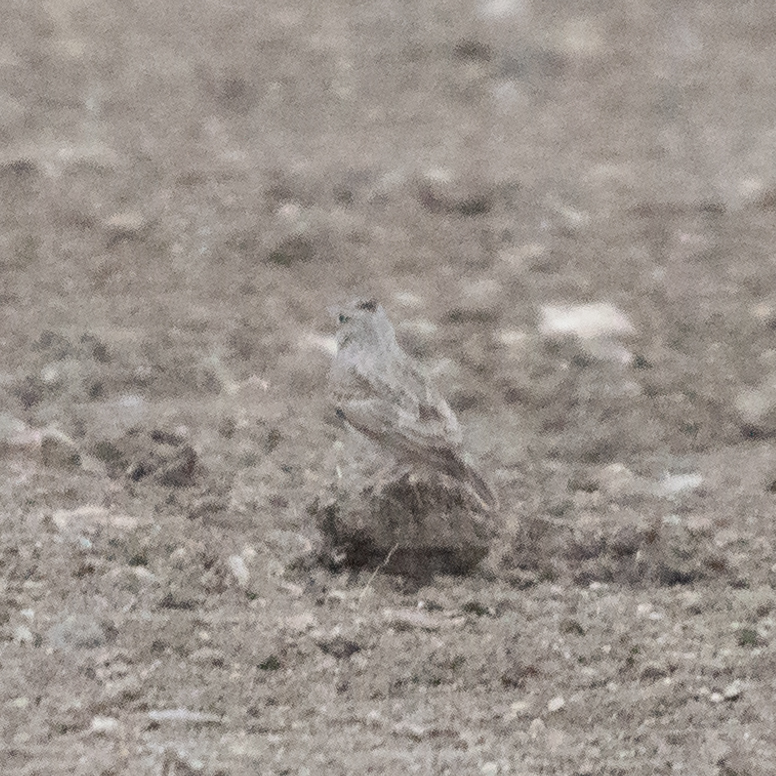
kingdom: Animalia
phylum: Chordata
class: Aves
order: Passeriformes
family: Alaudidae
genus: Galerida
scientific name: Galerida cristata
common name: Crested lark
